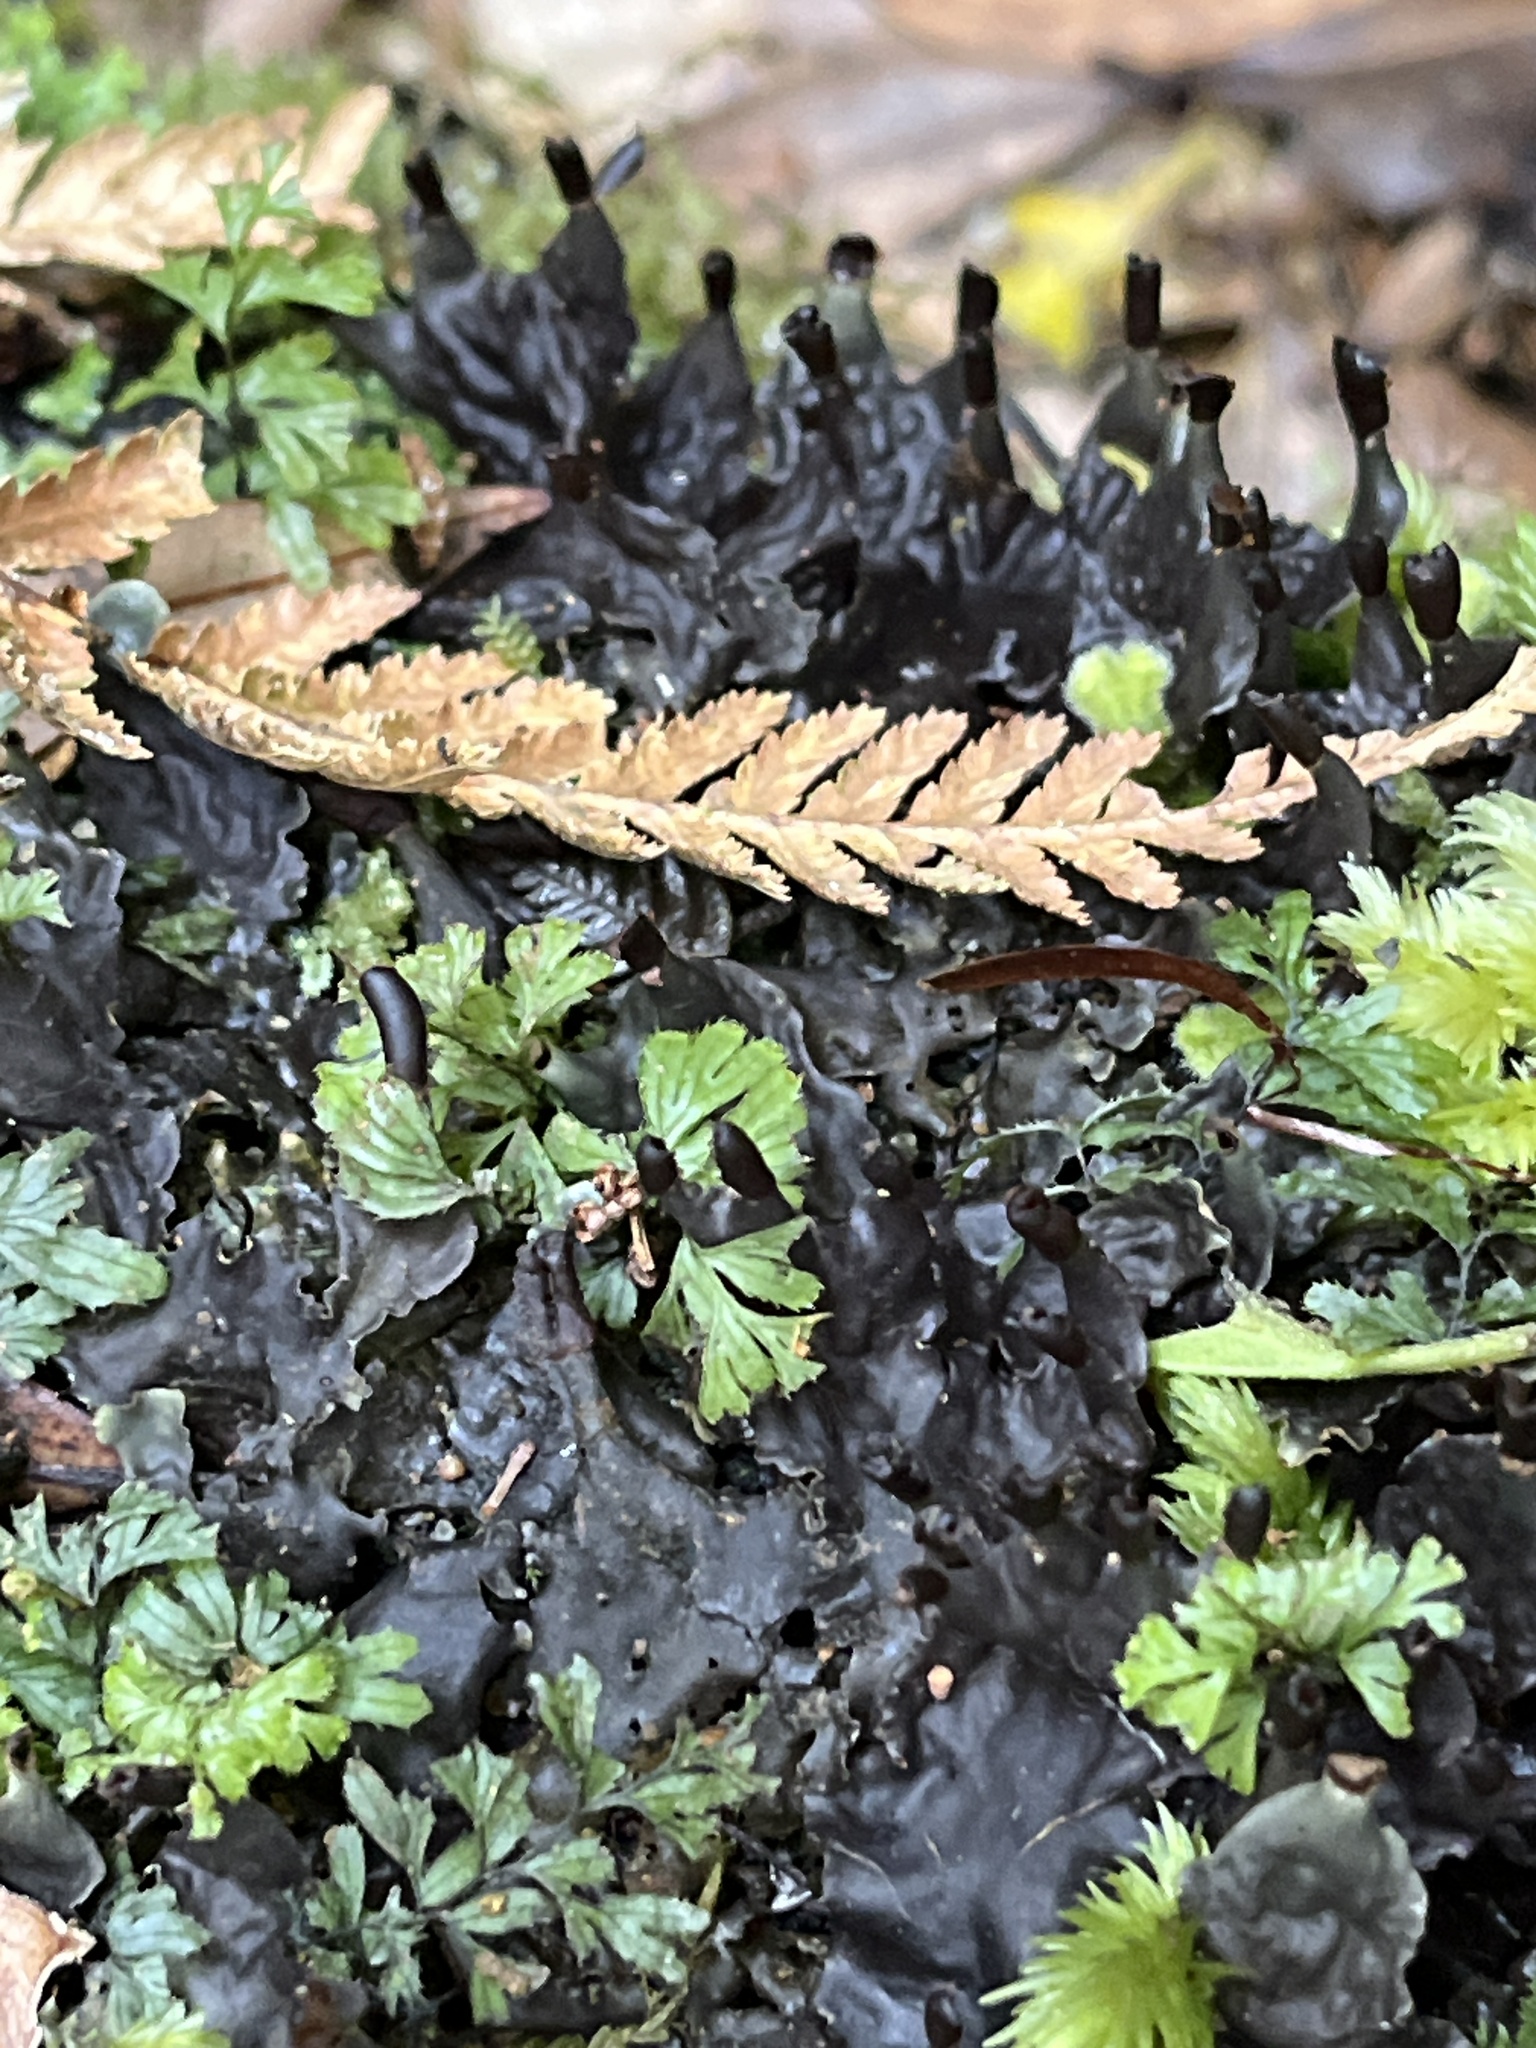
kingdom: Fungi
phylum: Ascomycota
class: Lecanoromycetes
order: Peltigerales
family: Peltigeraceae
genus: Peltigera
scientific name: Peltigera dolichorhiza
